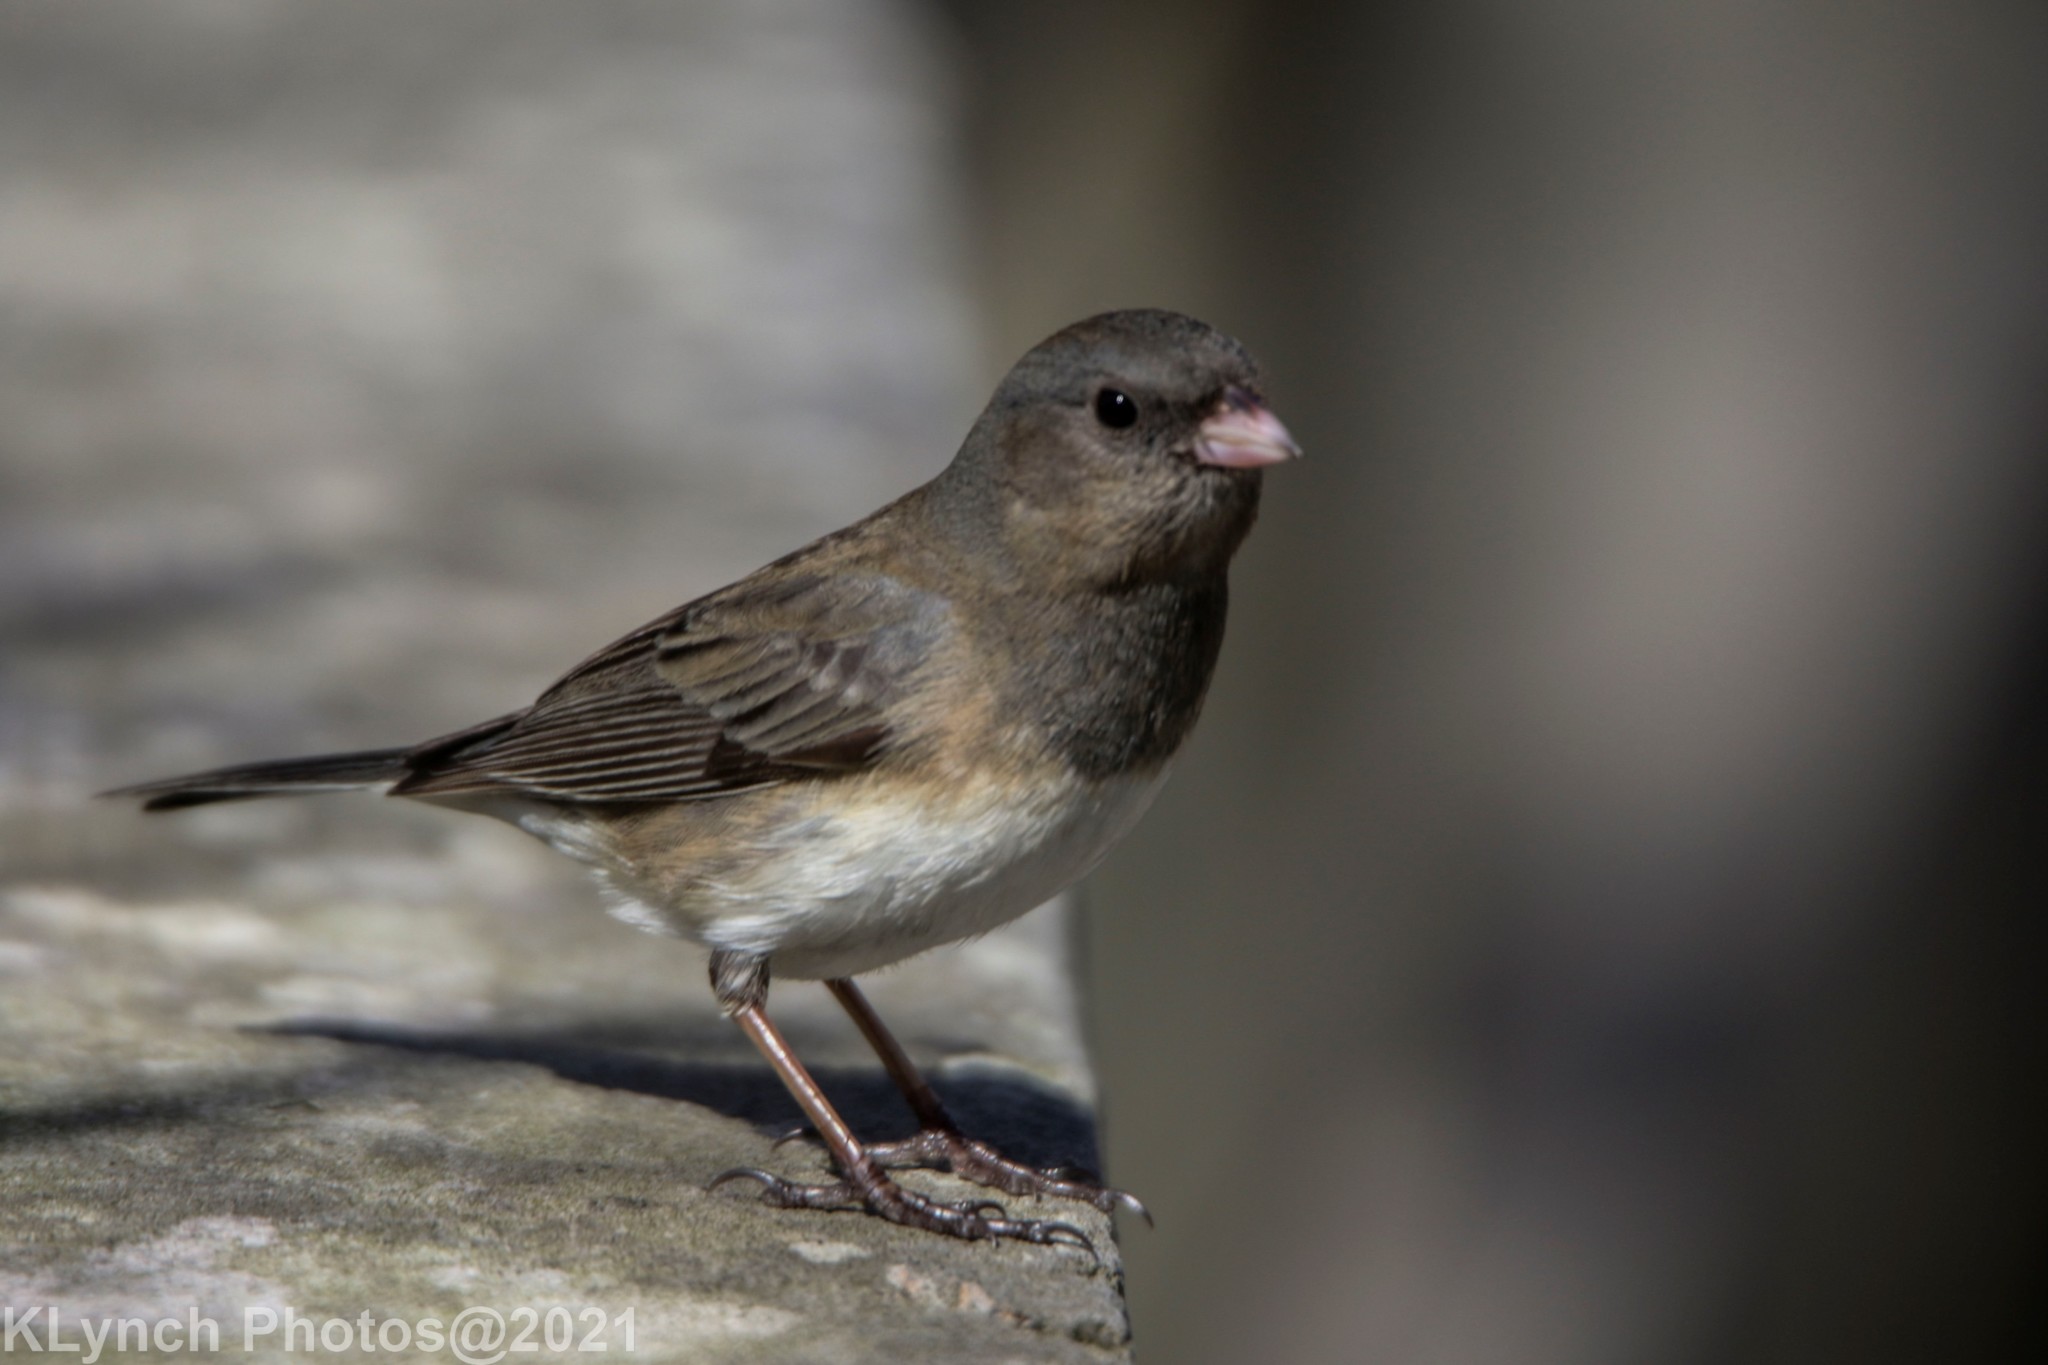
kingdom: Animalia
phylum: Chordata
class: Aves
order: Passeriformes
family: Passerellidae
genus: Junco
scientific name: Junco hyemalis
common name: Dark-eyed junco
